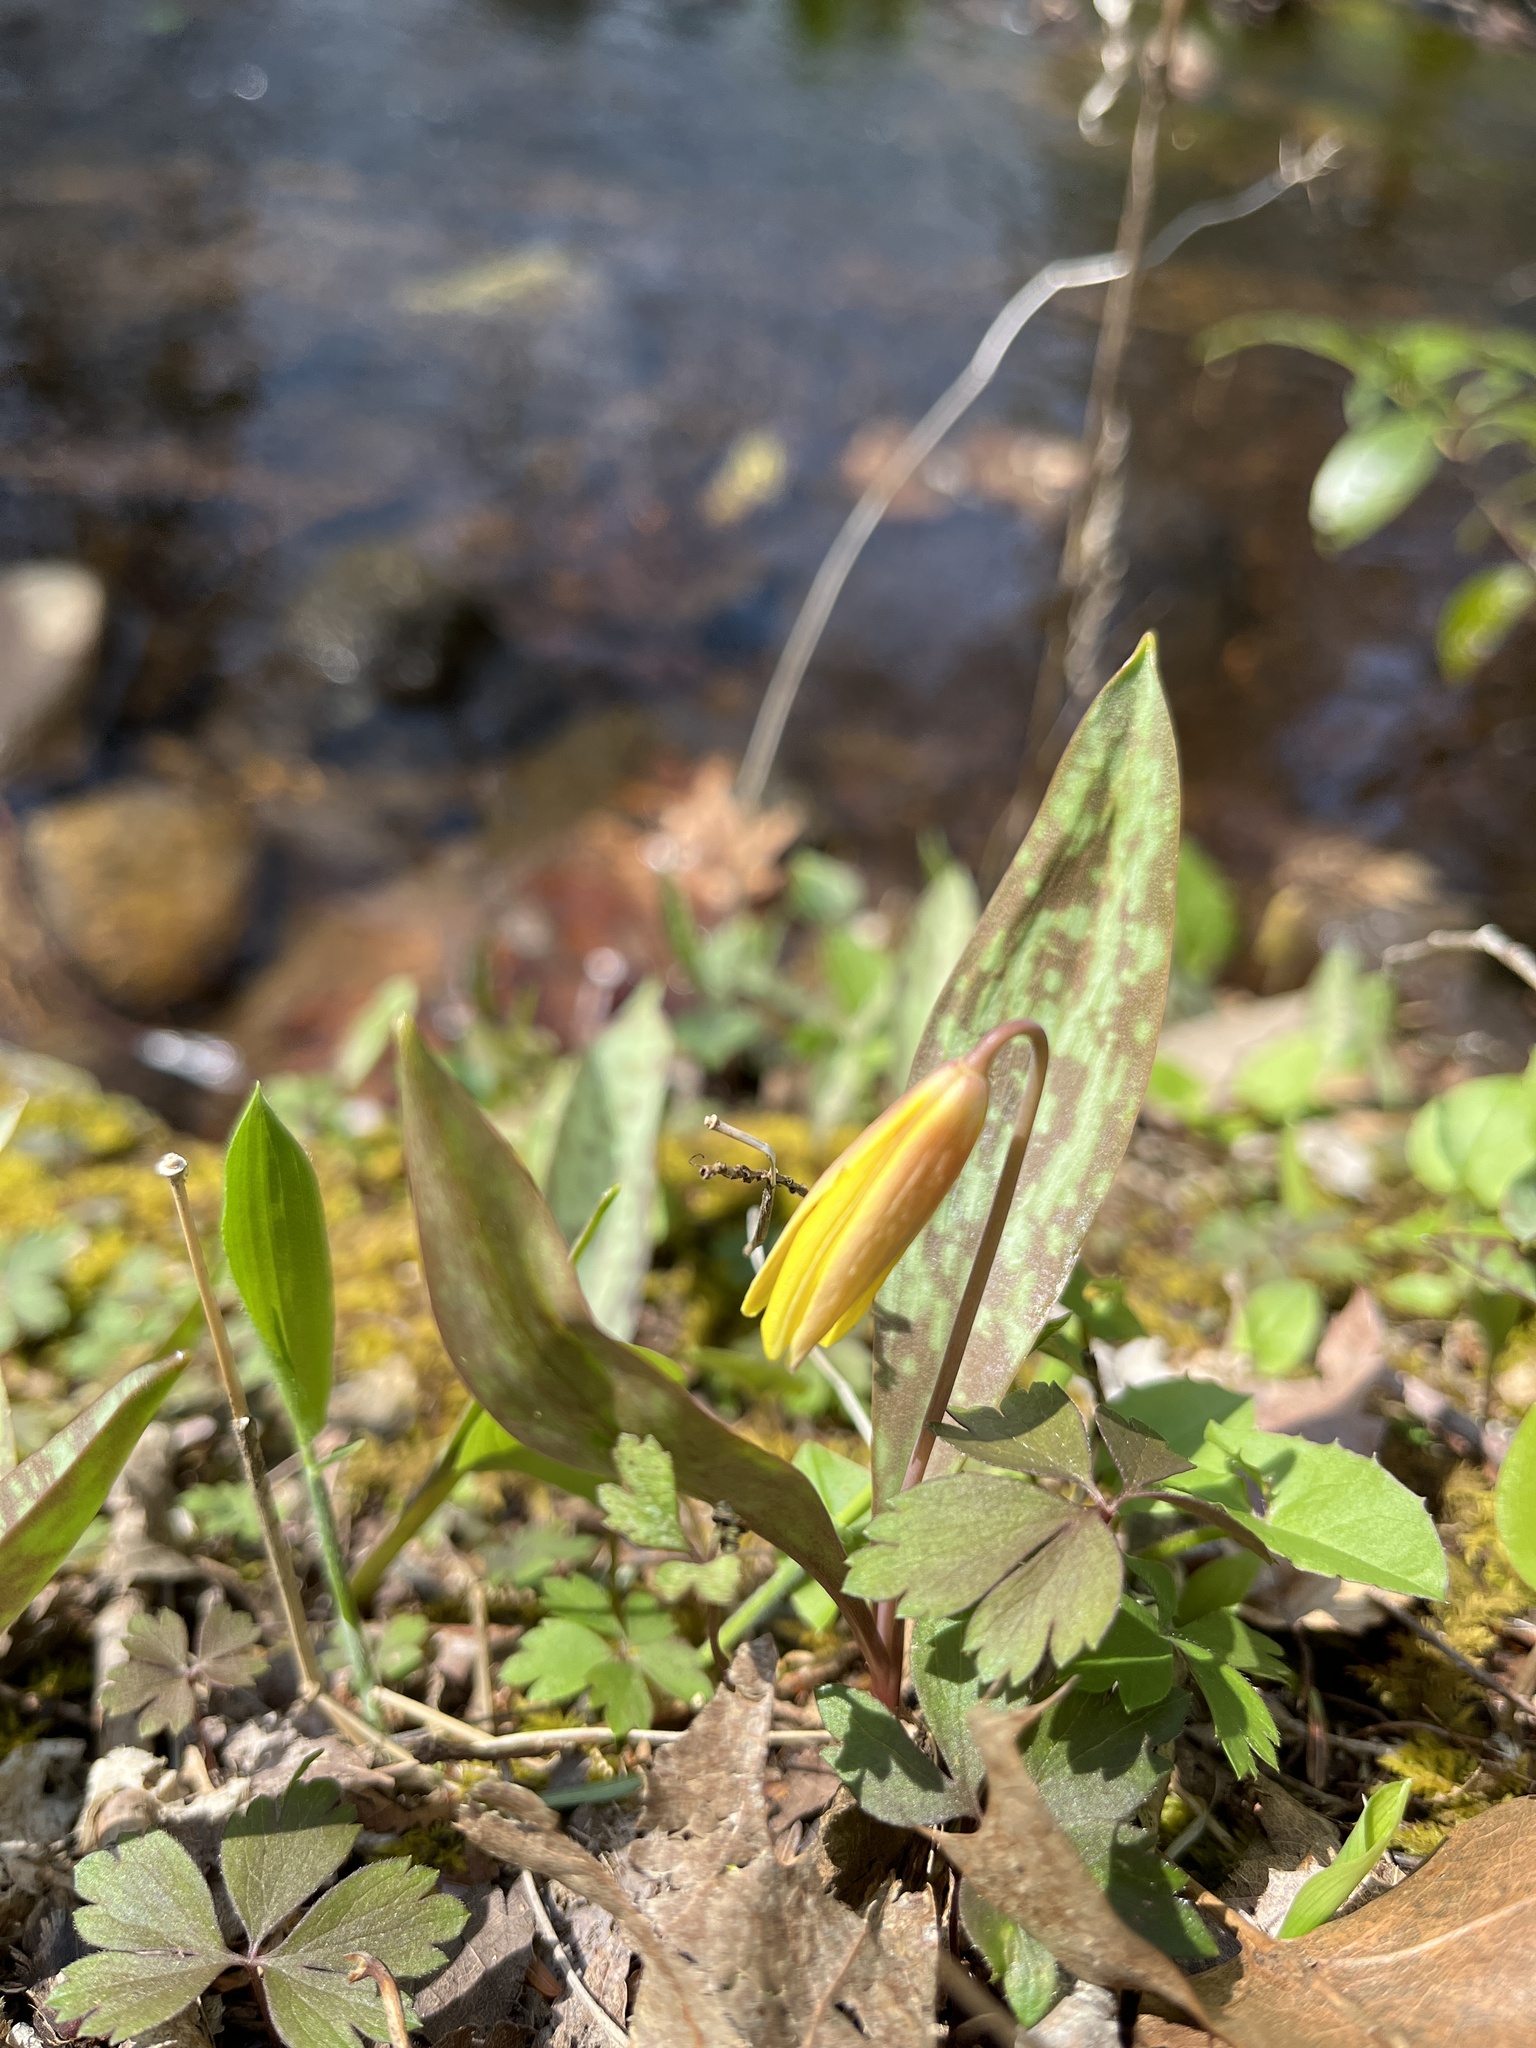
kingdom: Plantae
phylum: Tracheophyta
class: Liliopsida
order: Liliales
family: Liliaceae
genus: Erythronium
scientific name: Erythronium americanum
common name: Yellow adder's-tongue
